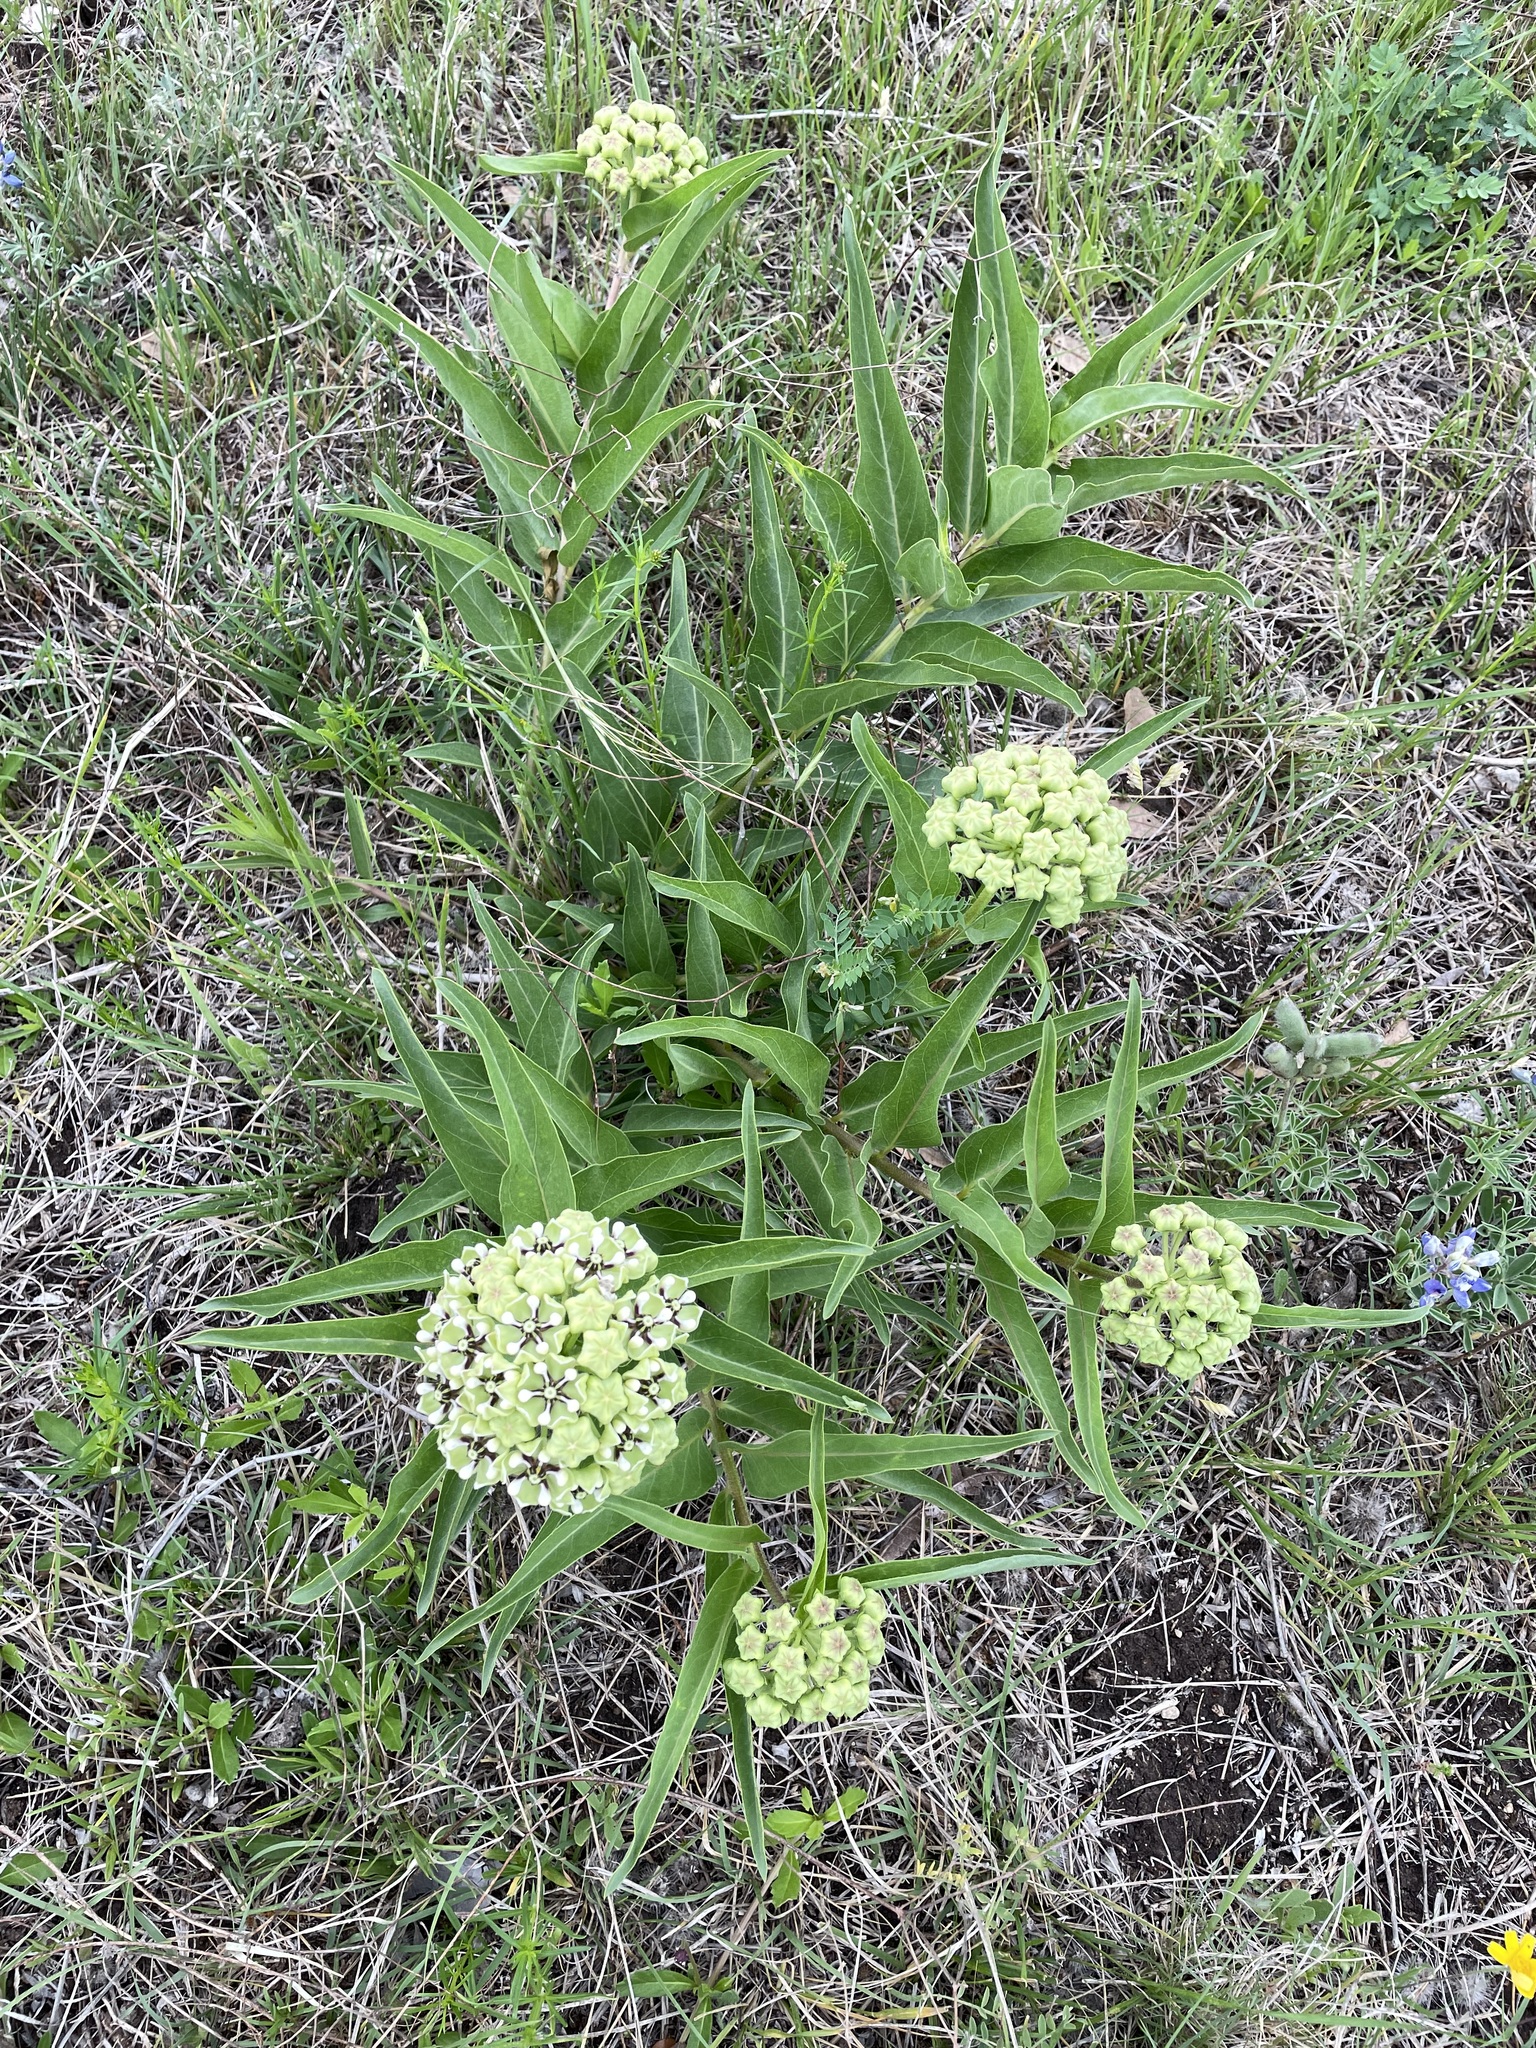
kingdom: Plantae
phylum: Tracheophyta
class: Magnoliopsida
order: Gentianales
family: Apocynaceae
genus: Asclepias
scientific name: Asclepias asperula
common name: Antelope horns
